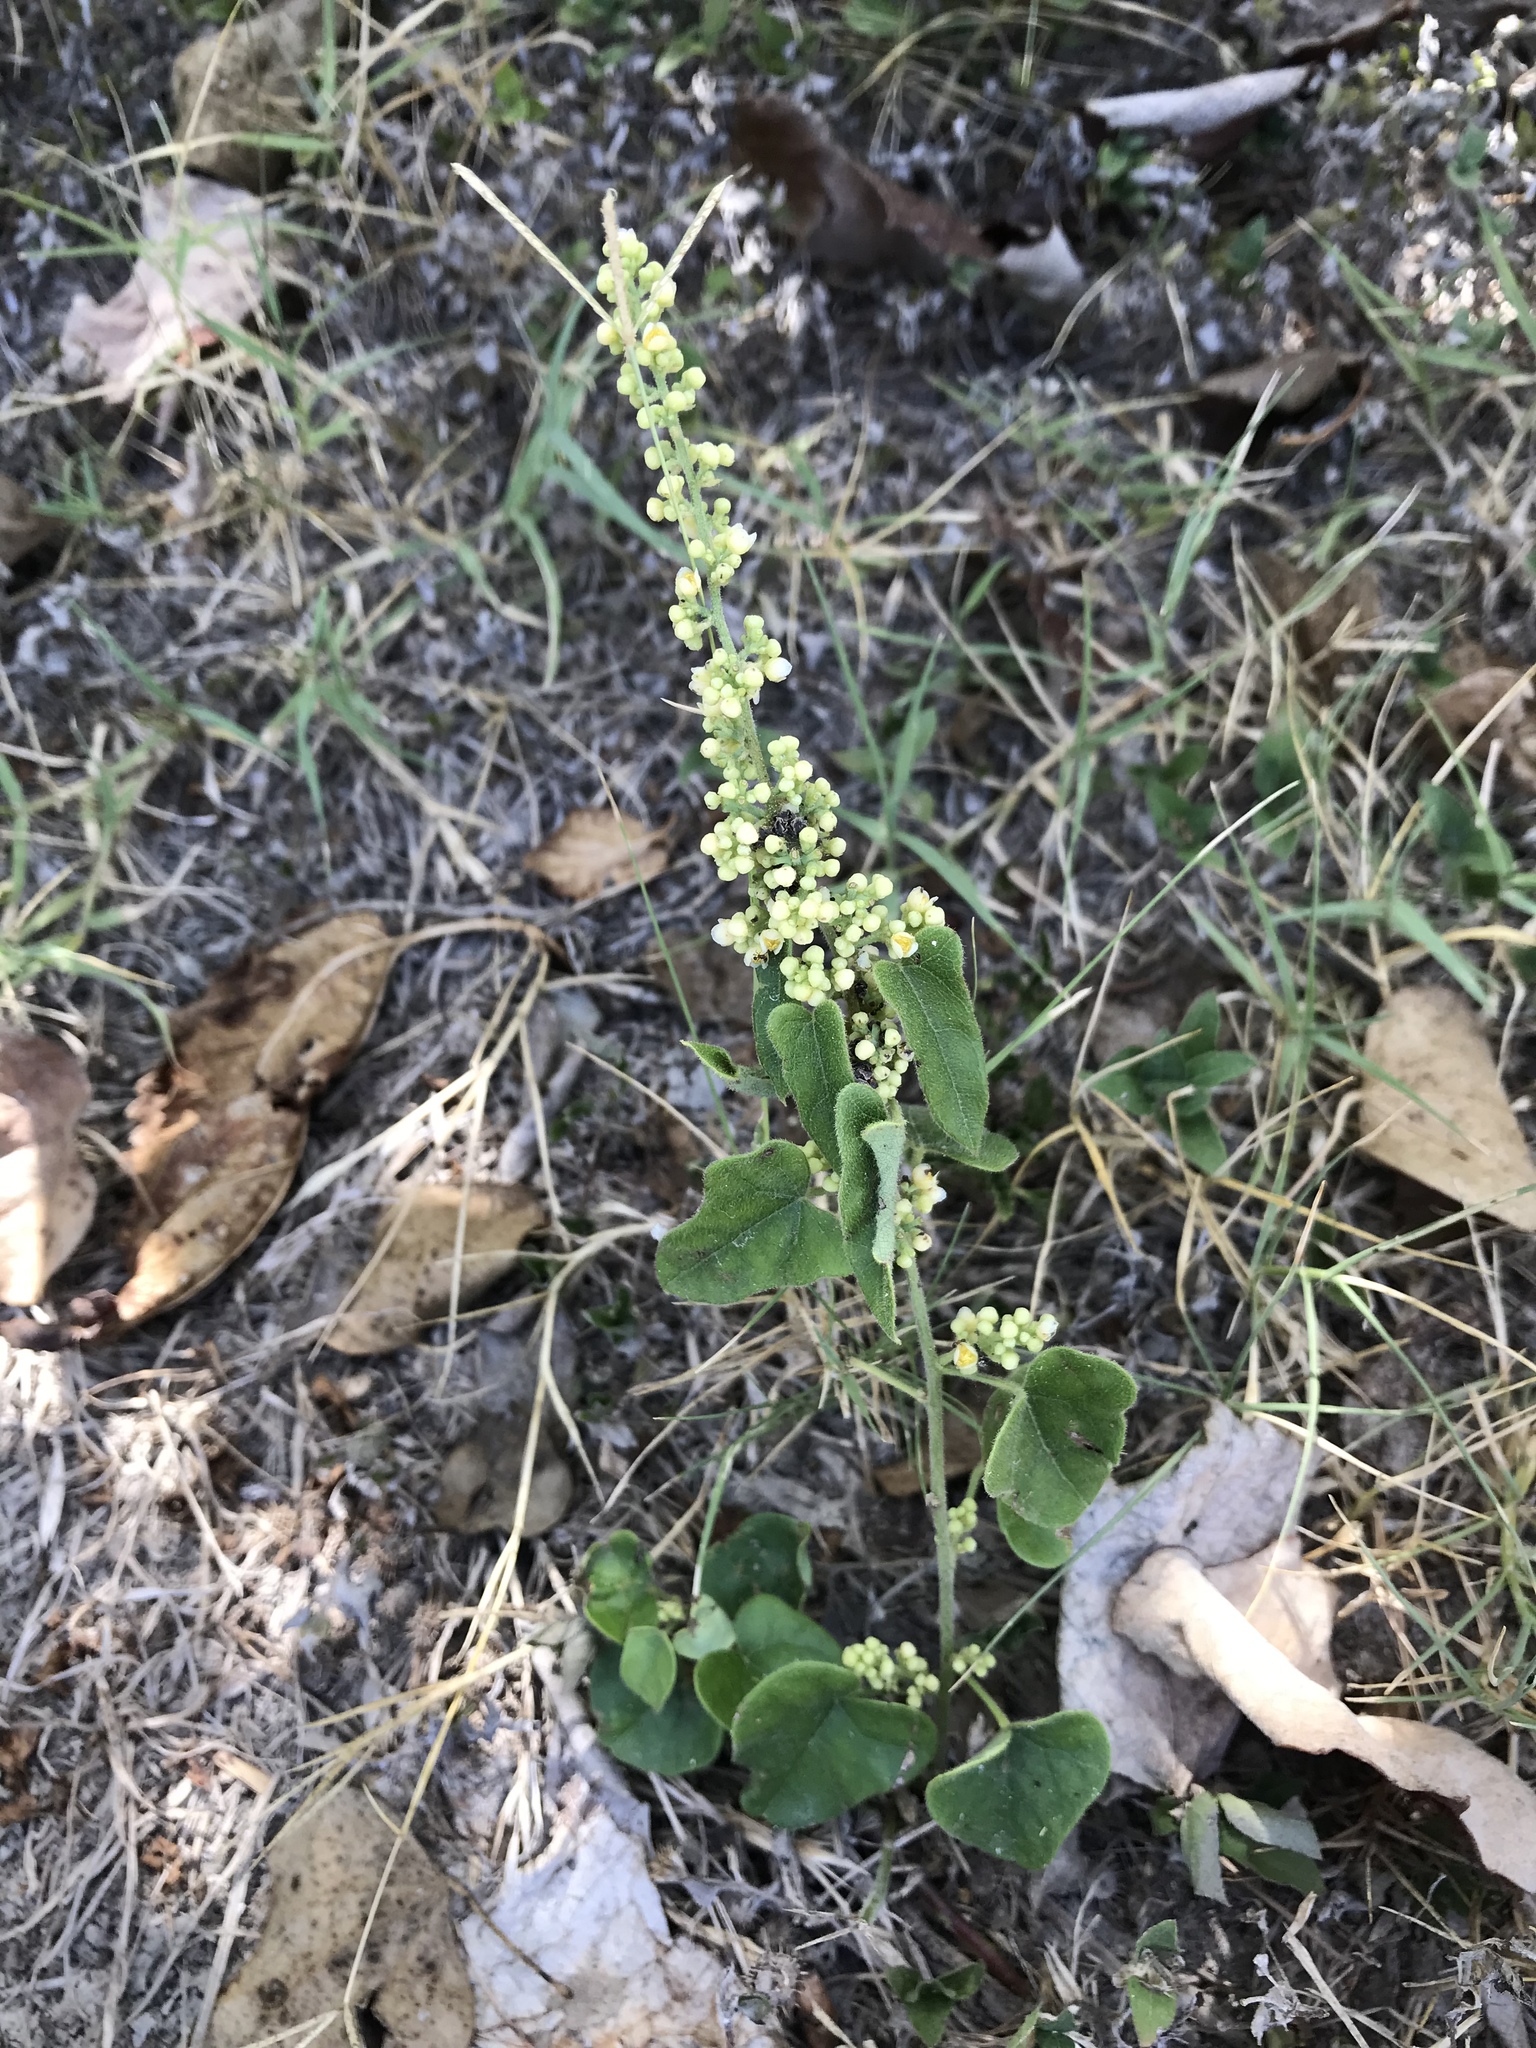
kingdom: Plantae
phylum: Tracheophyta
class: Magnoliopsida
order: Ranunculales
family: Menispermaceae
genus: Cocculus
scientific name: Cocculus carolinus
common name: Carolina moonseed
